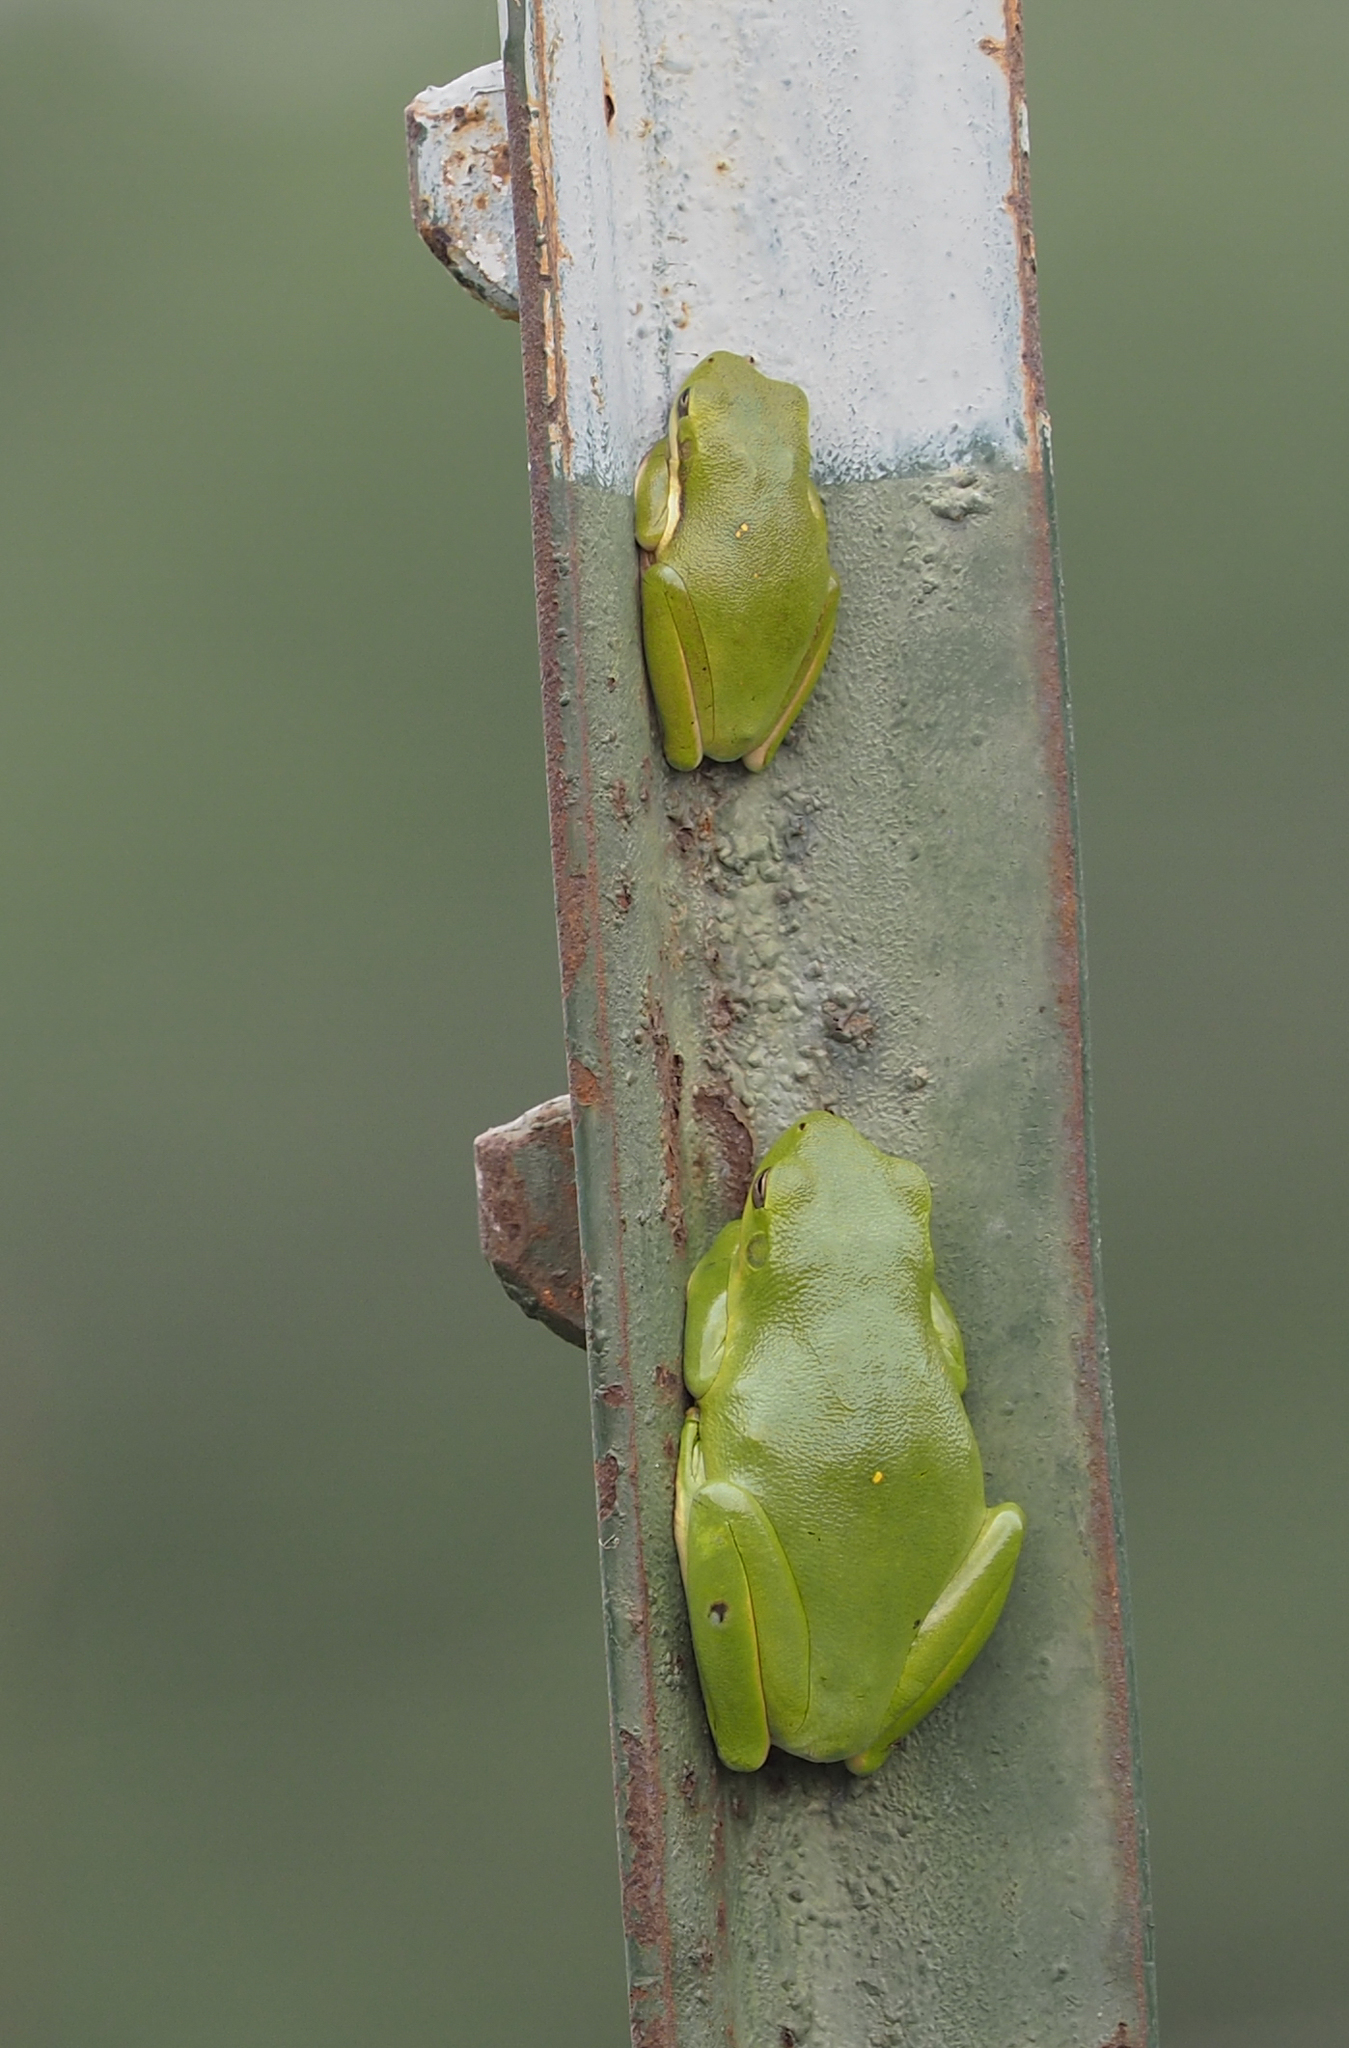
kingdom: Animalia
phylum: Chordata
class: Amphibia
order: Anura
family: Hylidae
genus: Dryophytes
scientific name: Dryophytes cinereus
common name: Green treefrog
